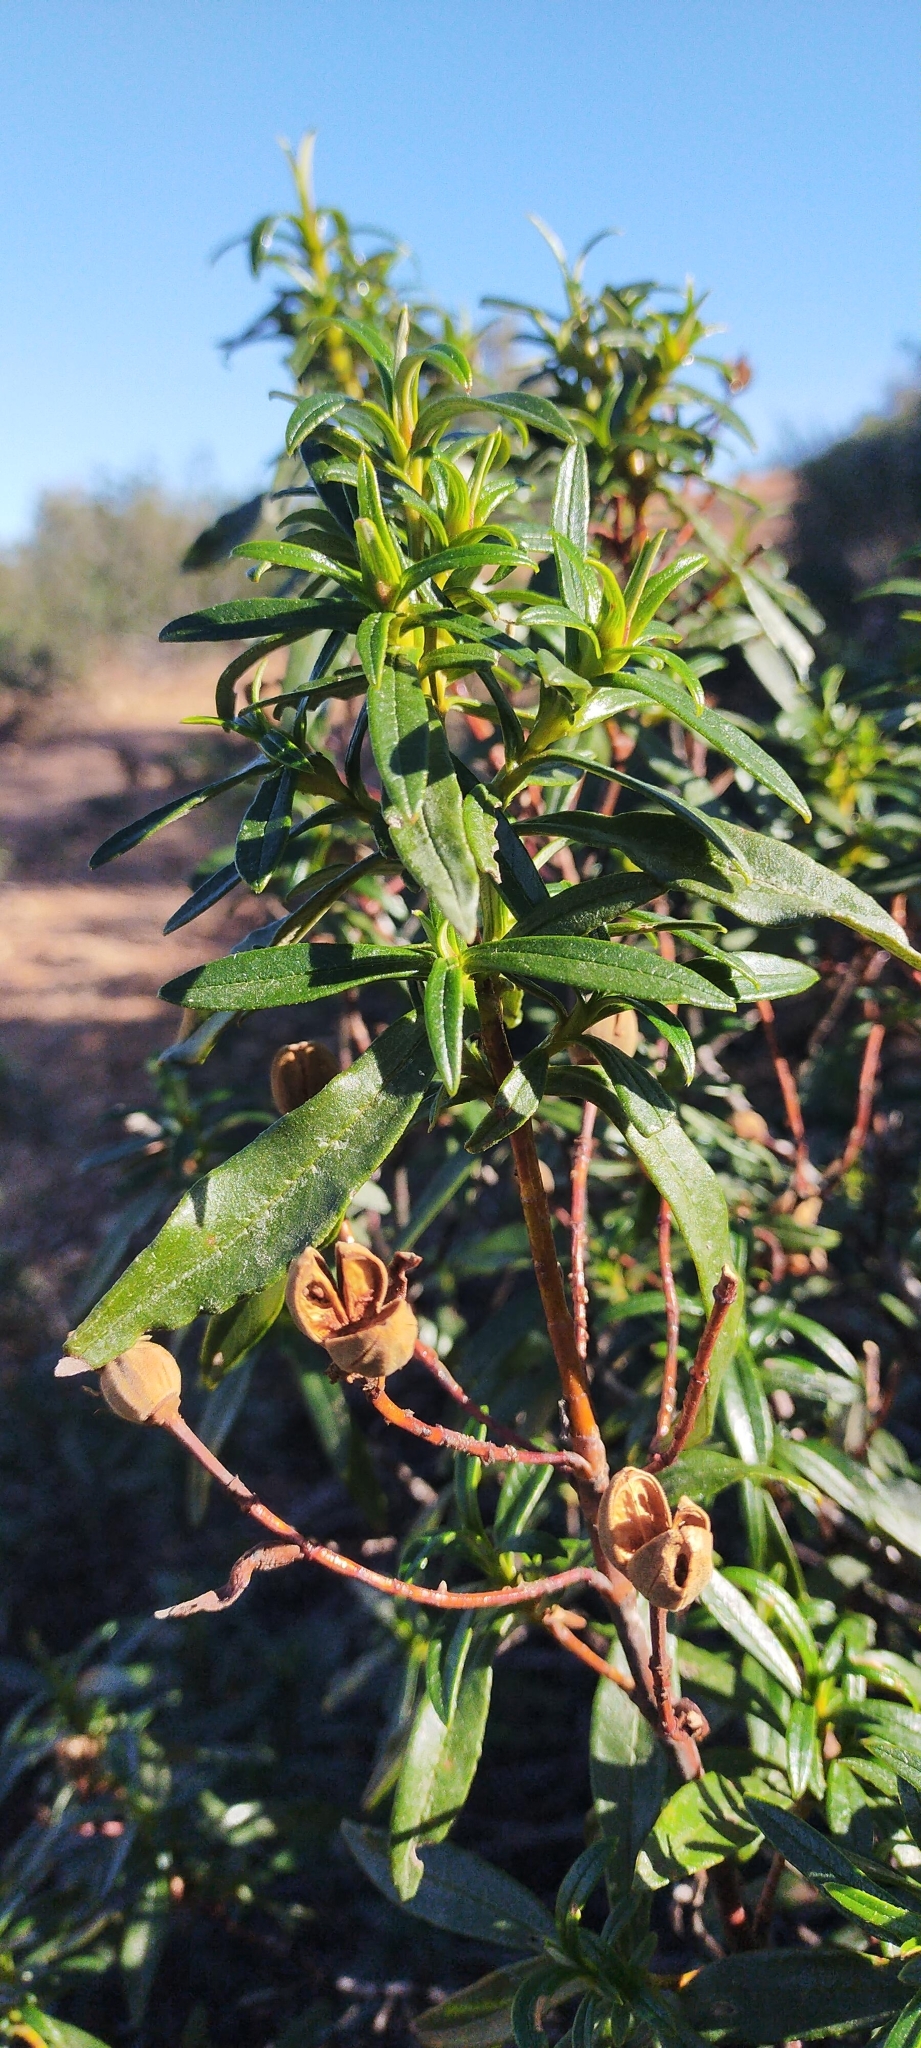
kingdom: Plantae
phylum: Tracheophyta
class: Magnoliopsida
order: Malvales
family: Cistaceae
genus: Cistus
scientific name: Cistus ladanifer
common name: Common gum cistus
